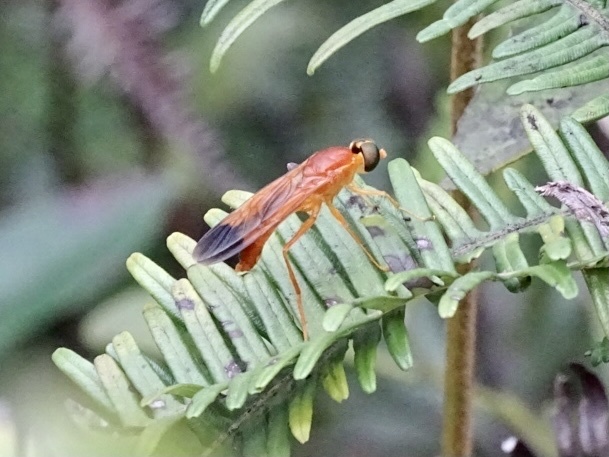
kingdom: Animalia
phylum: Arthropoda
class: Insecta
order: Diptera
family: Stratiomyidae
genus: Ptecticus
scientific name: Ptecticus aurifer
